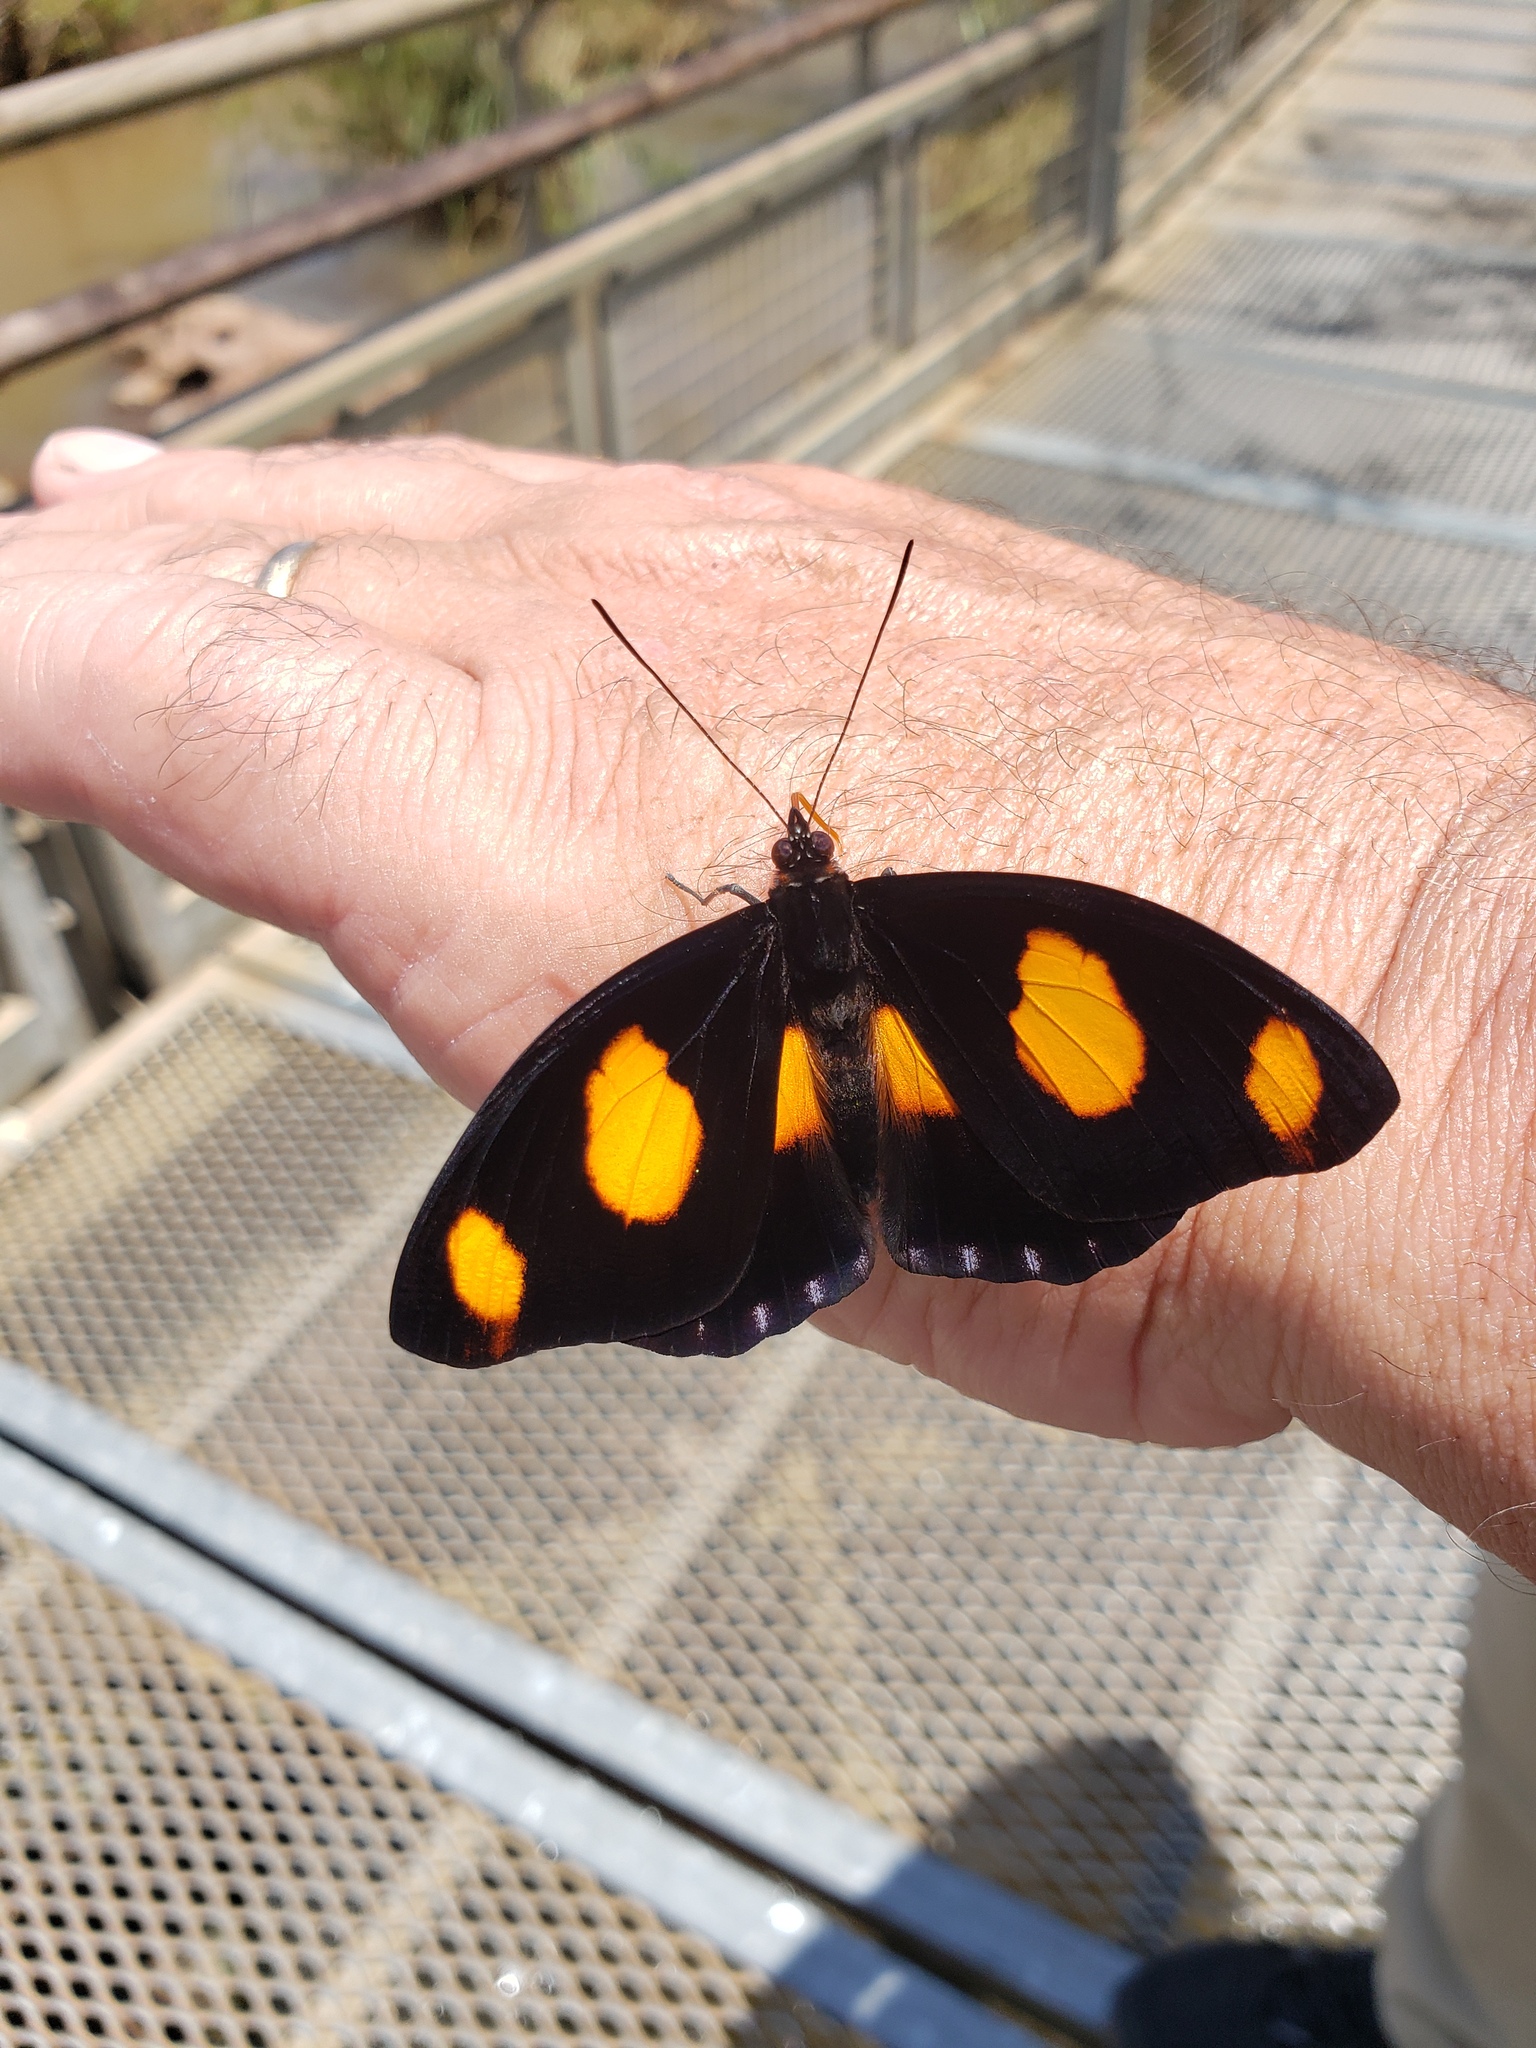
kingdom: Animalia
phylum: Arthropoda
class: Insecta
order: Lepidoptera
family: Nymphalidae
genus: Catonephele
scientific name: Catonephele numilia
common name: Blue-frosted banner
